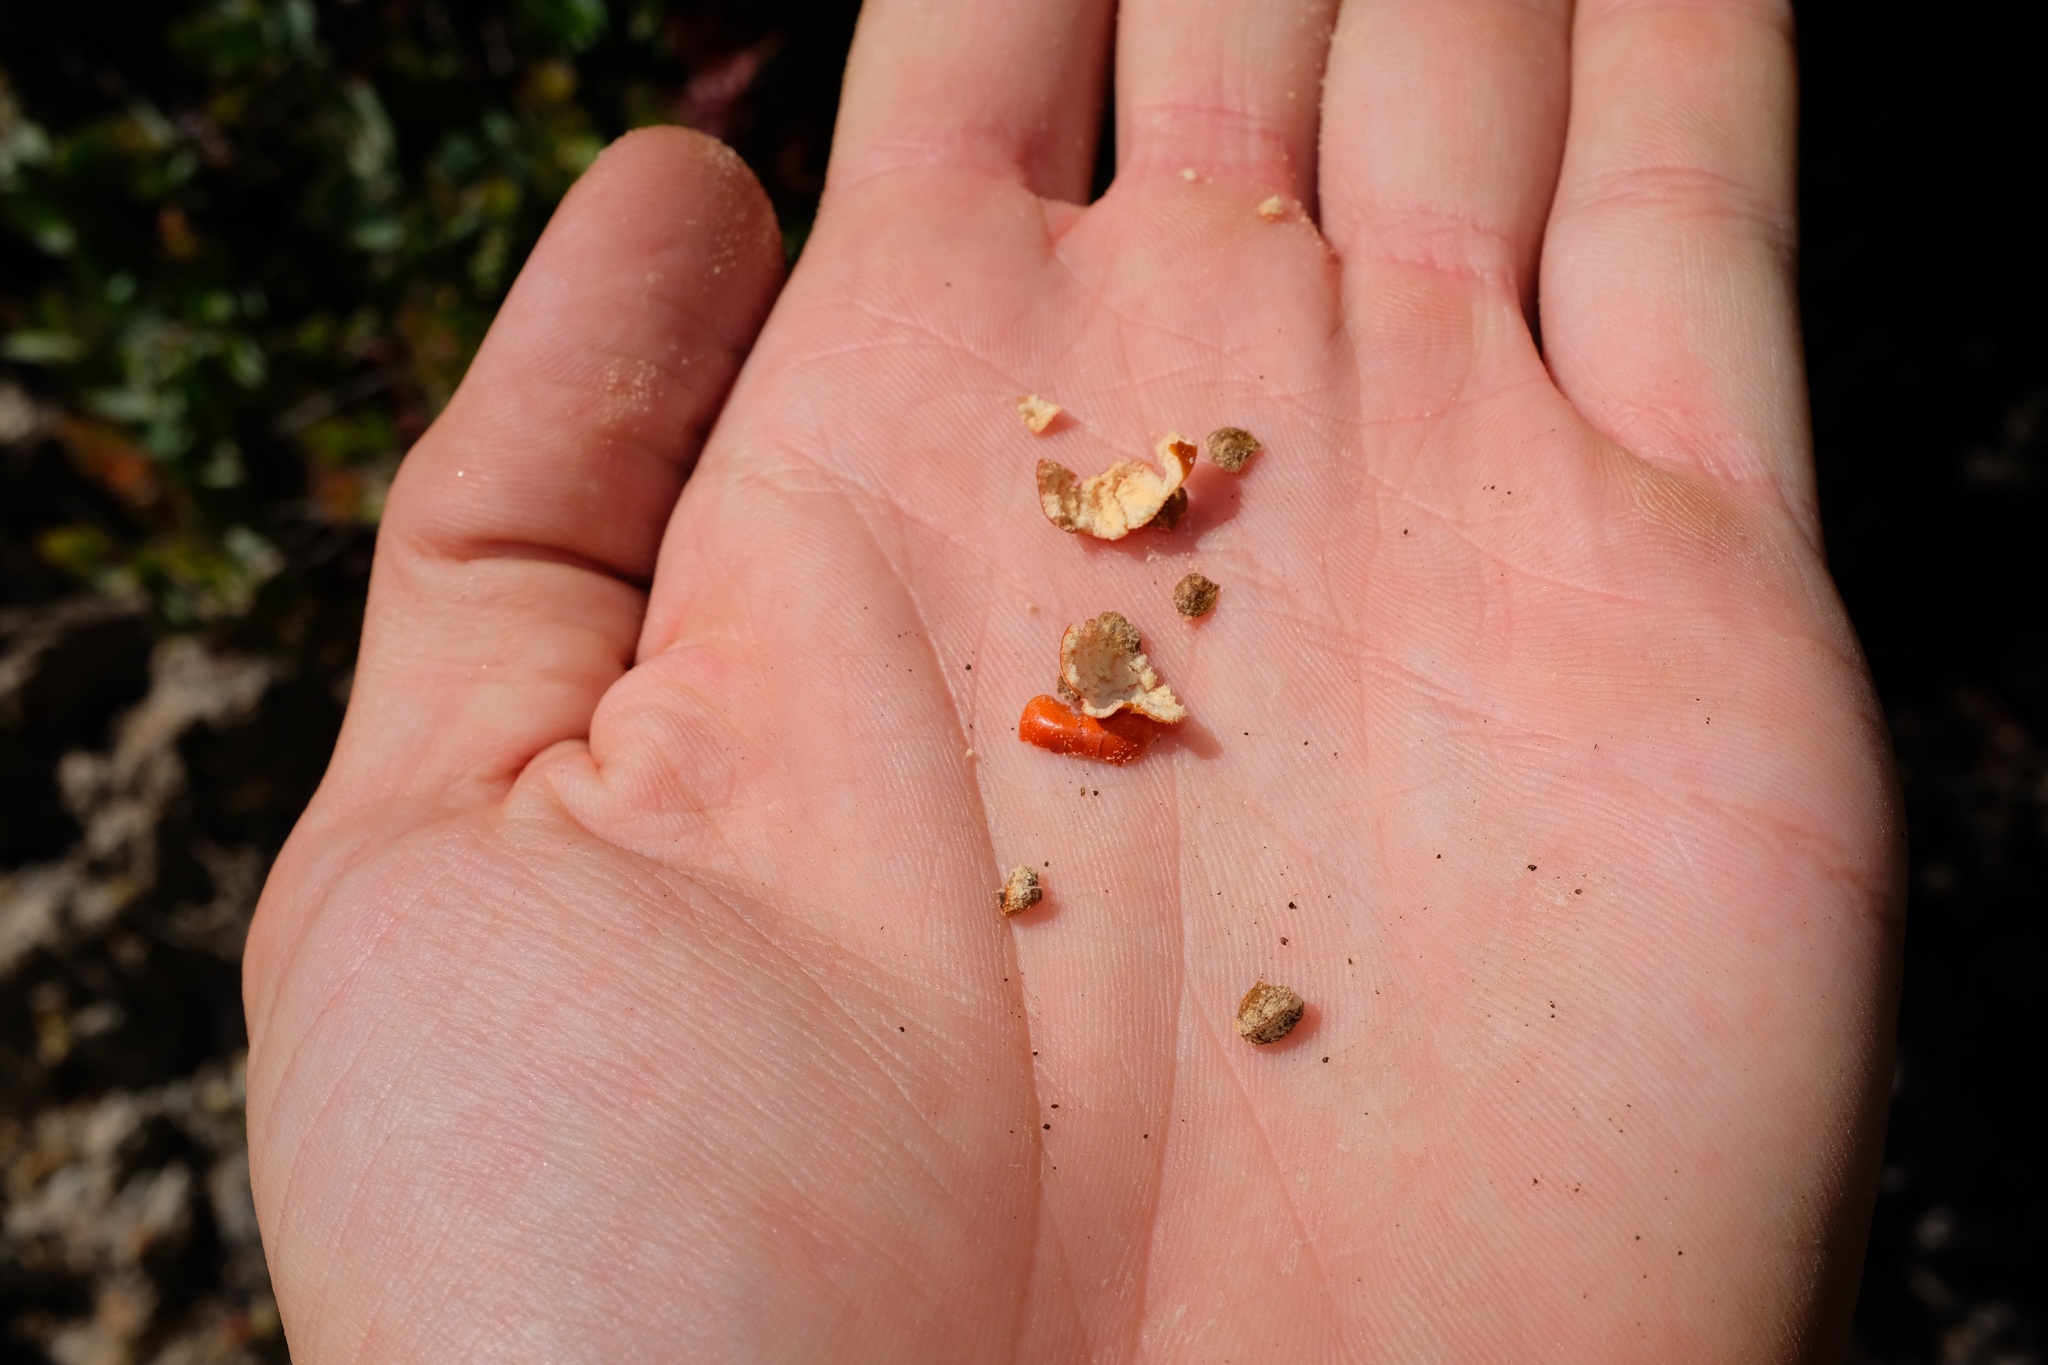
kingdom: Plantae
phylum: Tracheophyta
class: Magnoliopsida
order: Ericales
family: Ericaceae
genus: Arctostaphylos
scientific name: Arctostaphylos luciana
